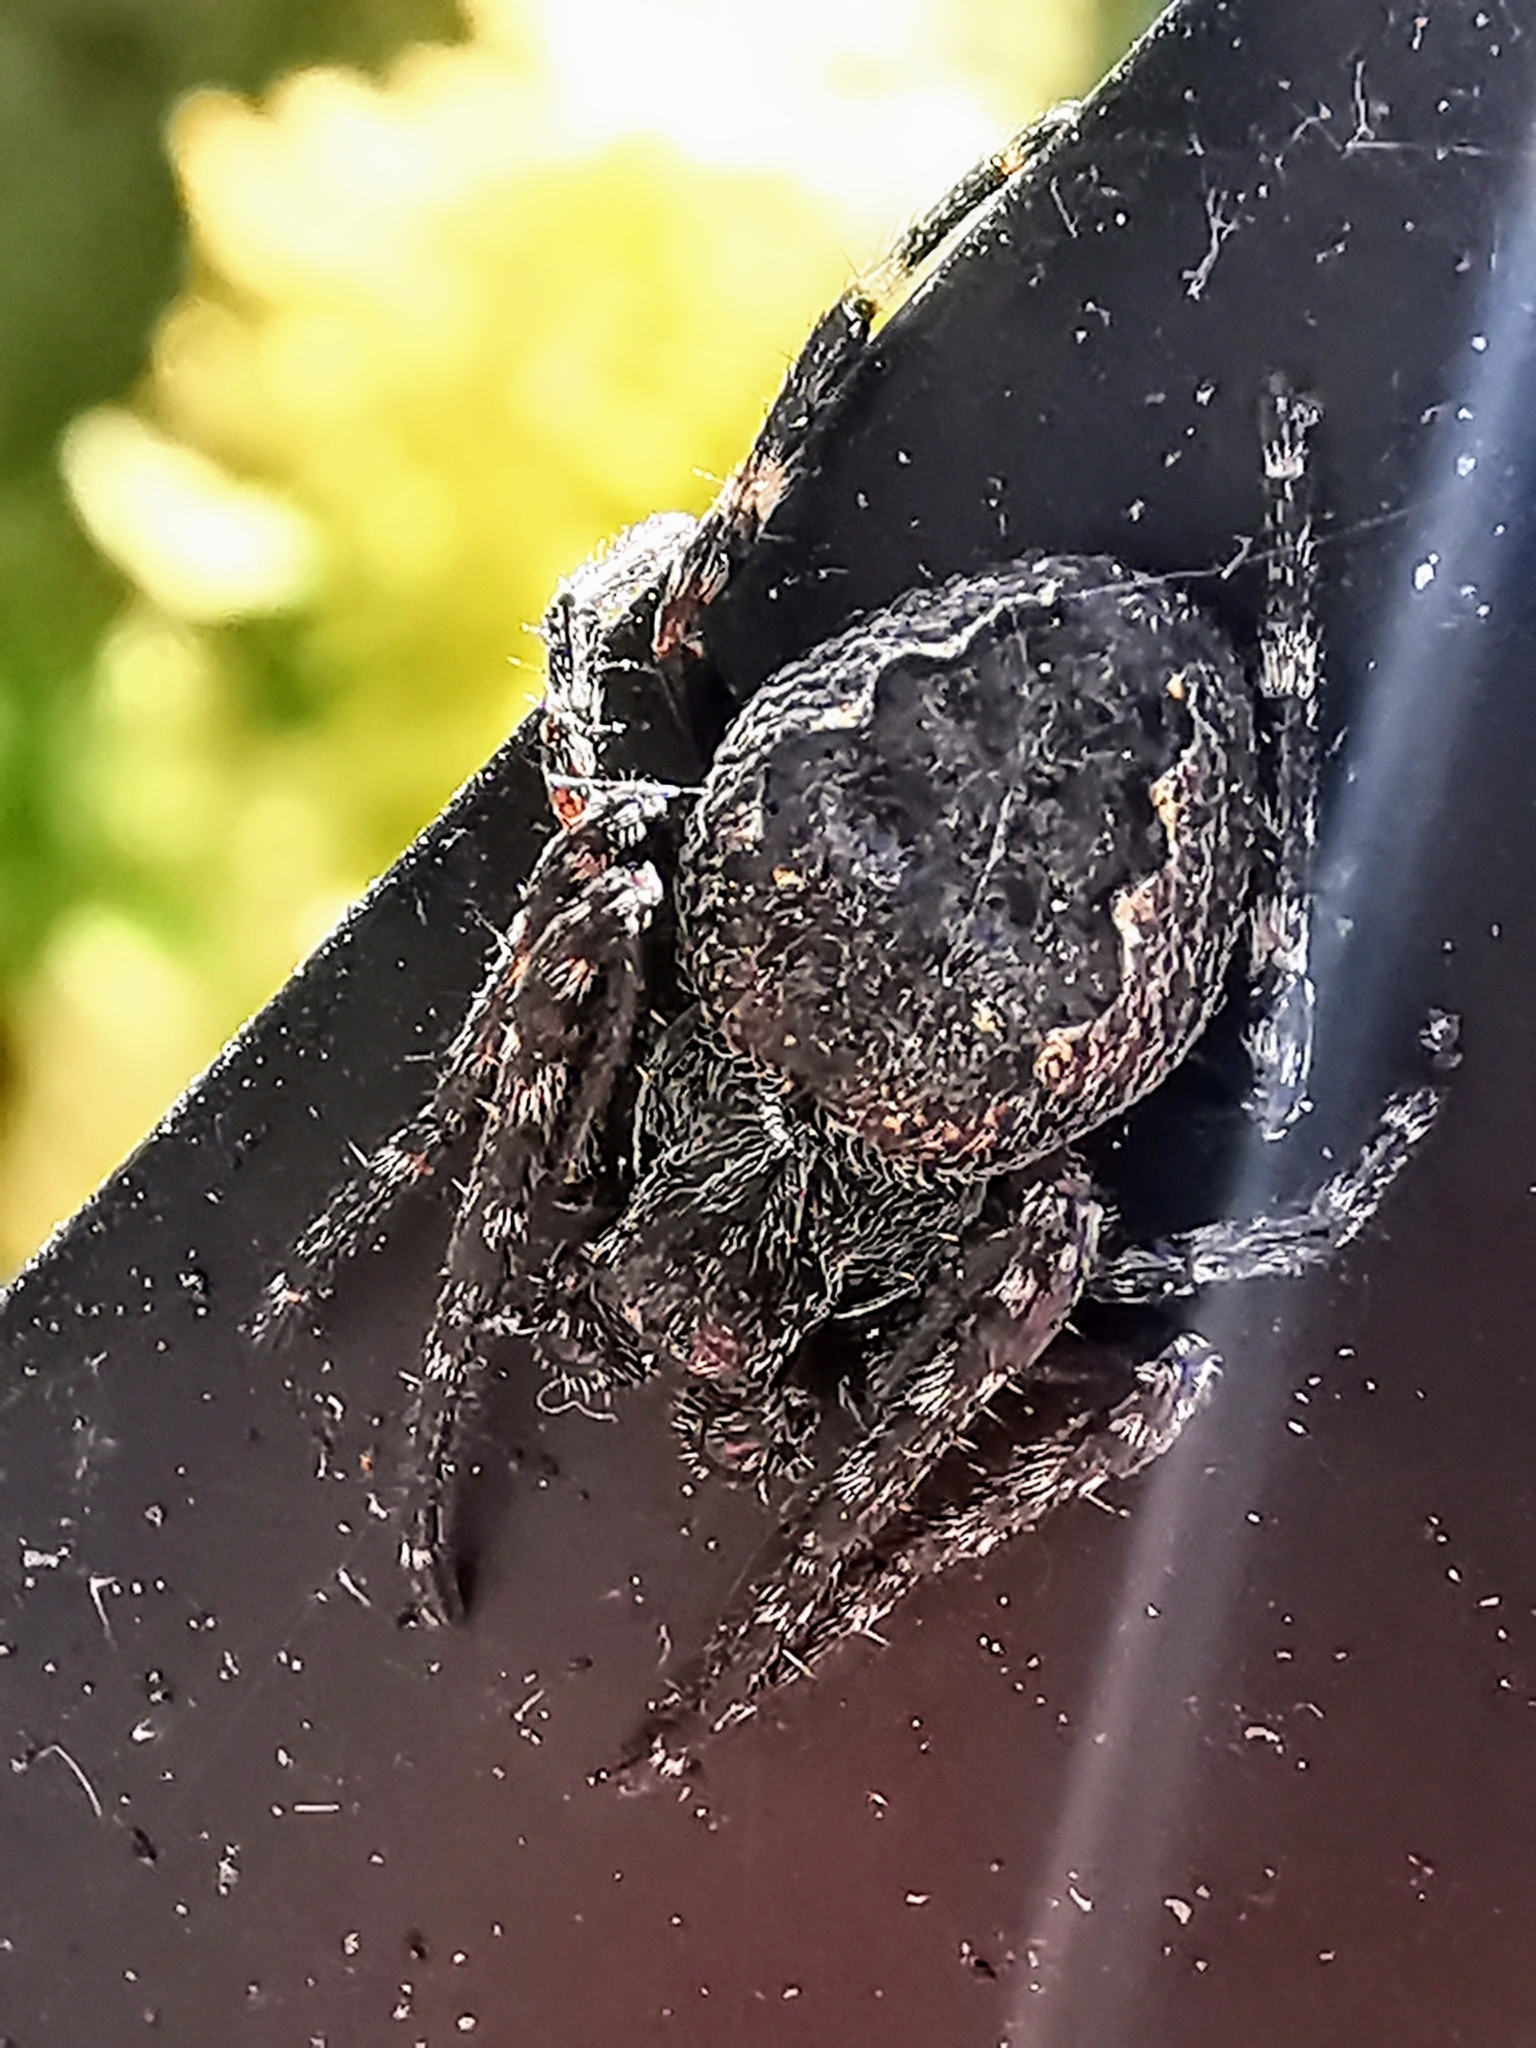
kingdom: Animalia
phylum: Arthropoda
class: Arachnida
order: Araneae
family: Araneidae
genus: Nuctenea
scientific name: Nuctenea umbratica
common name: Toad spider
